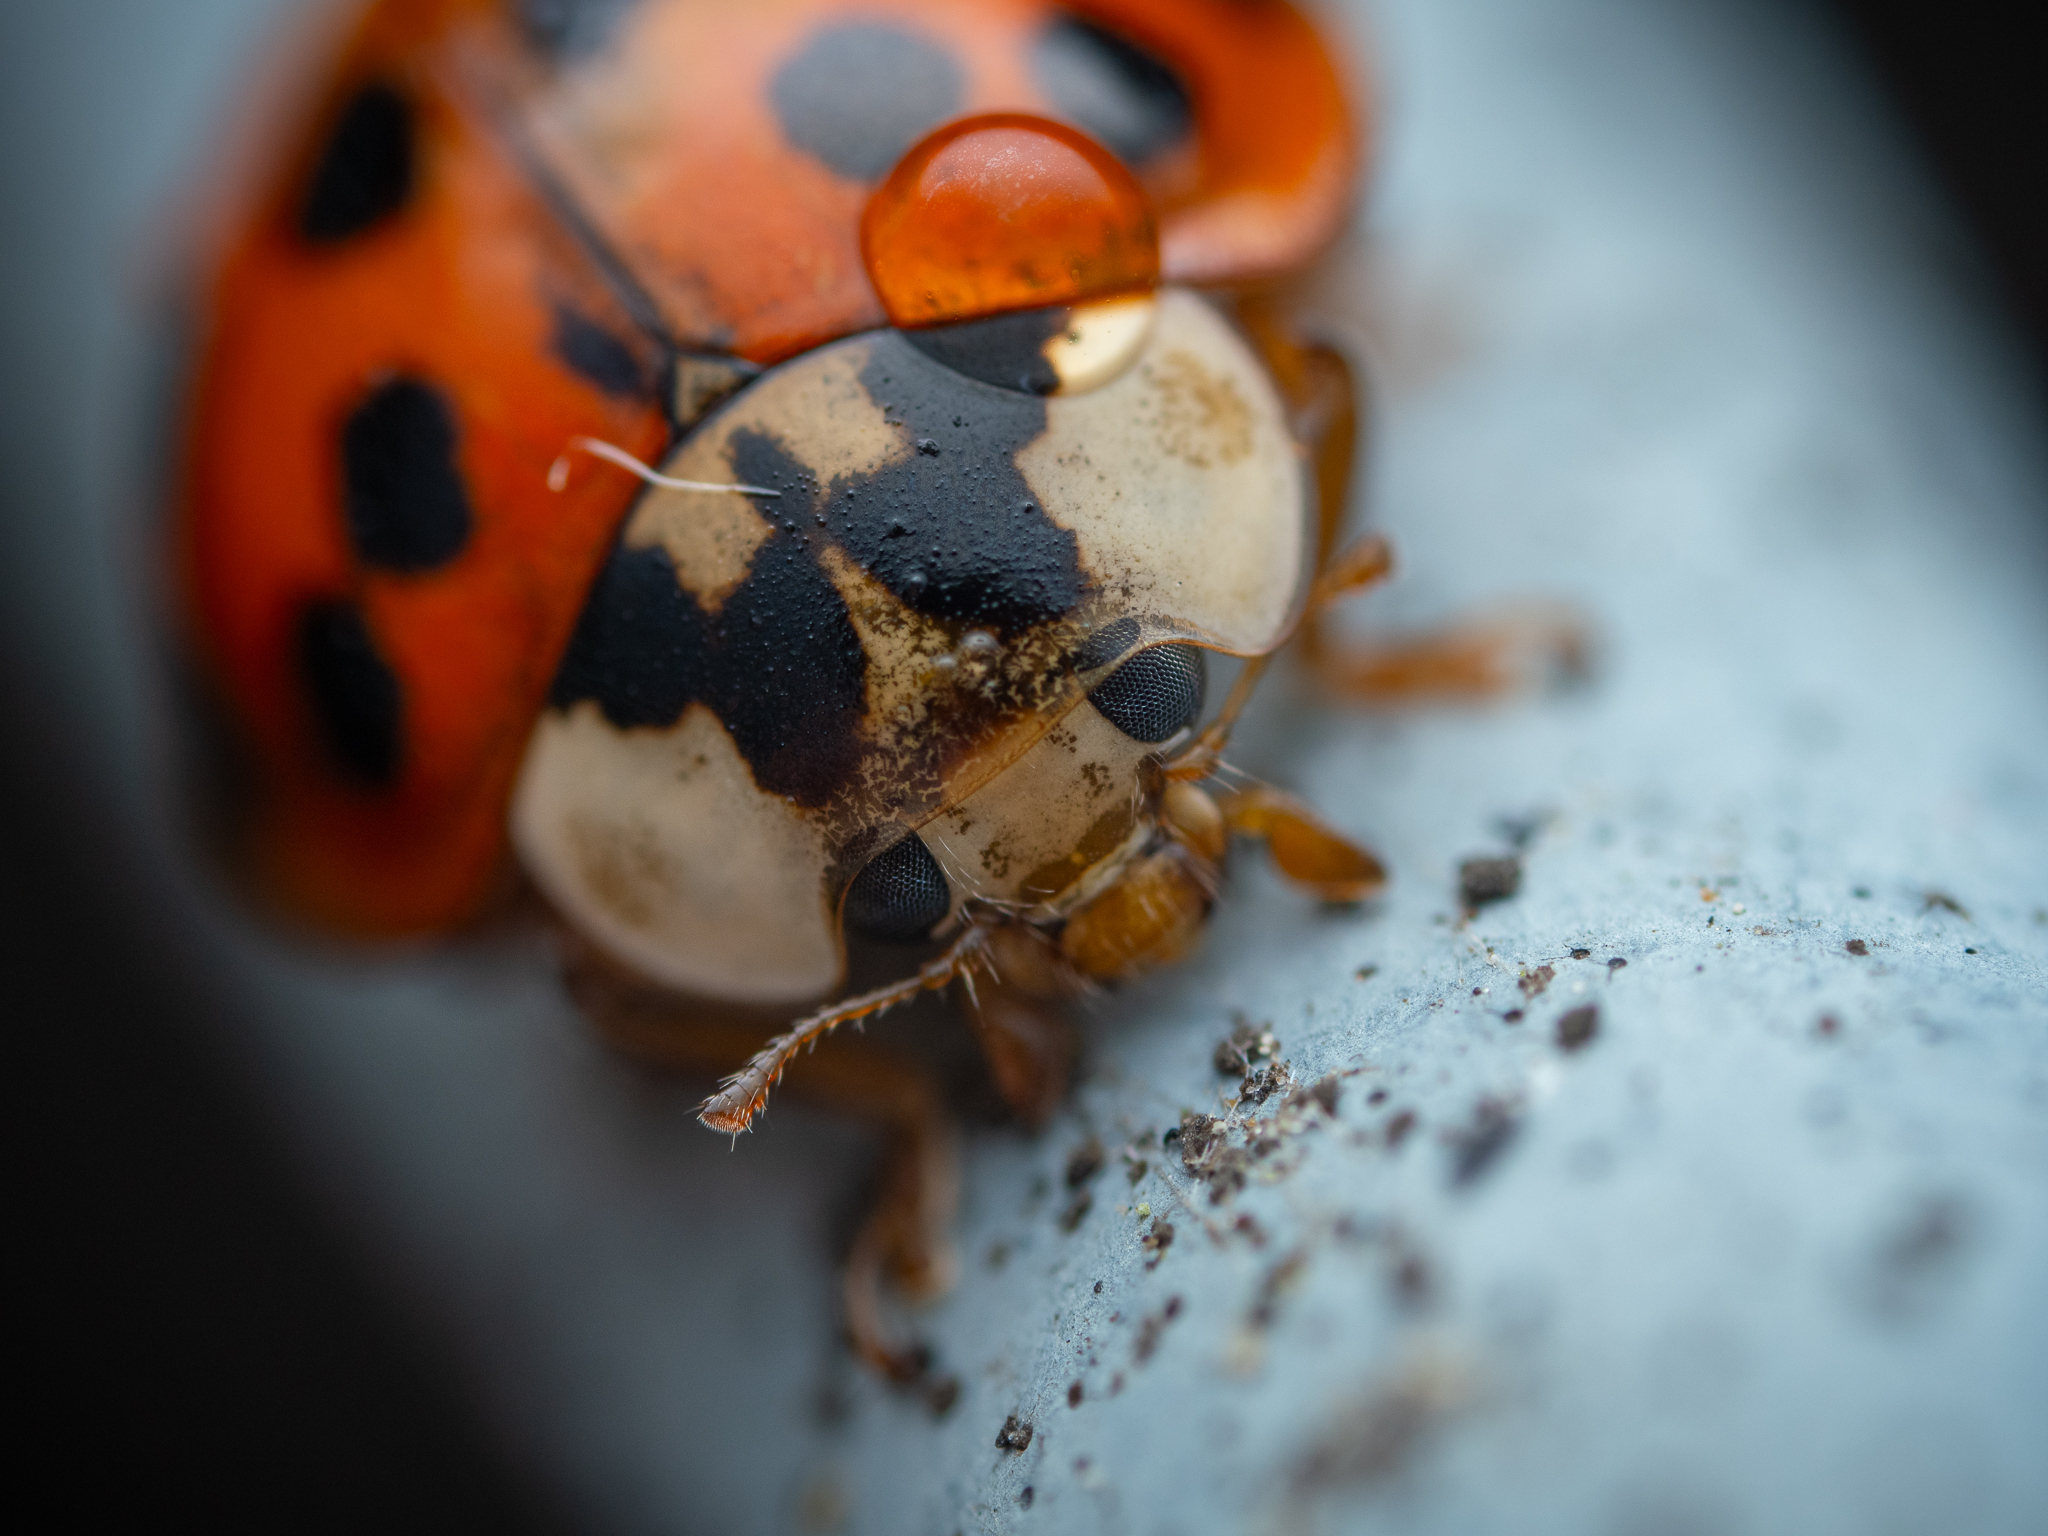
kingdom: Animalia
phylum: Arthropoda
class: Insecta
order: Coleoptera
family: Coccinellidae
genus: Harmonia
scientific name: Harmonia axyridis
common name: Harlequin ladybird
